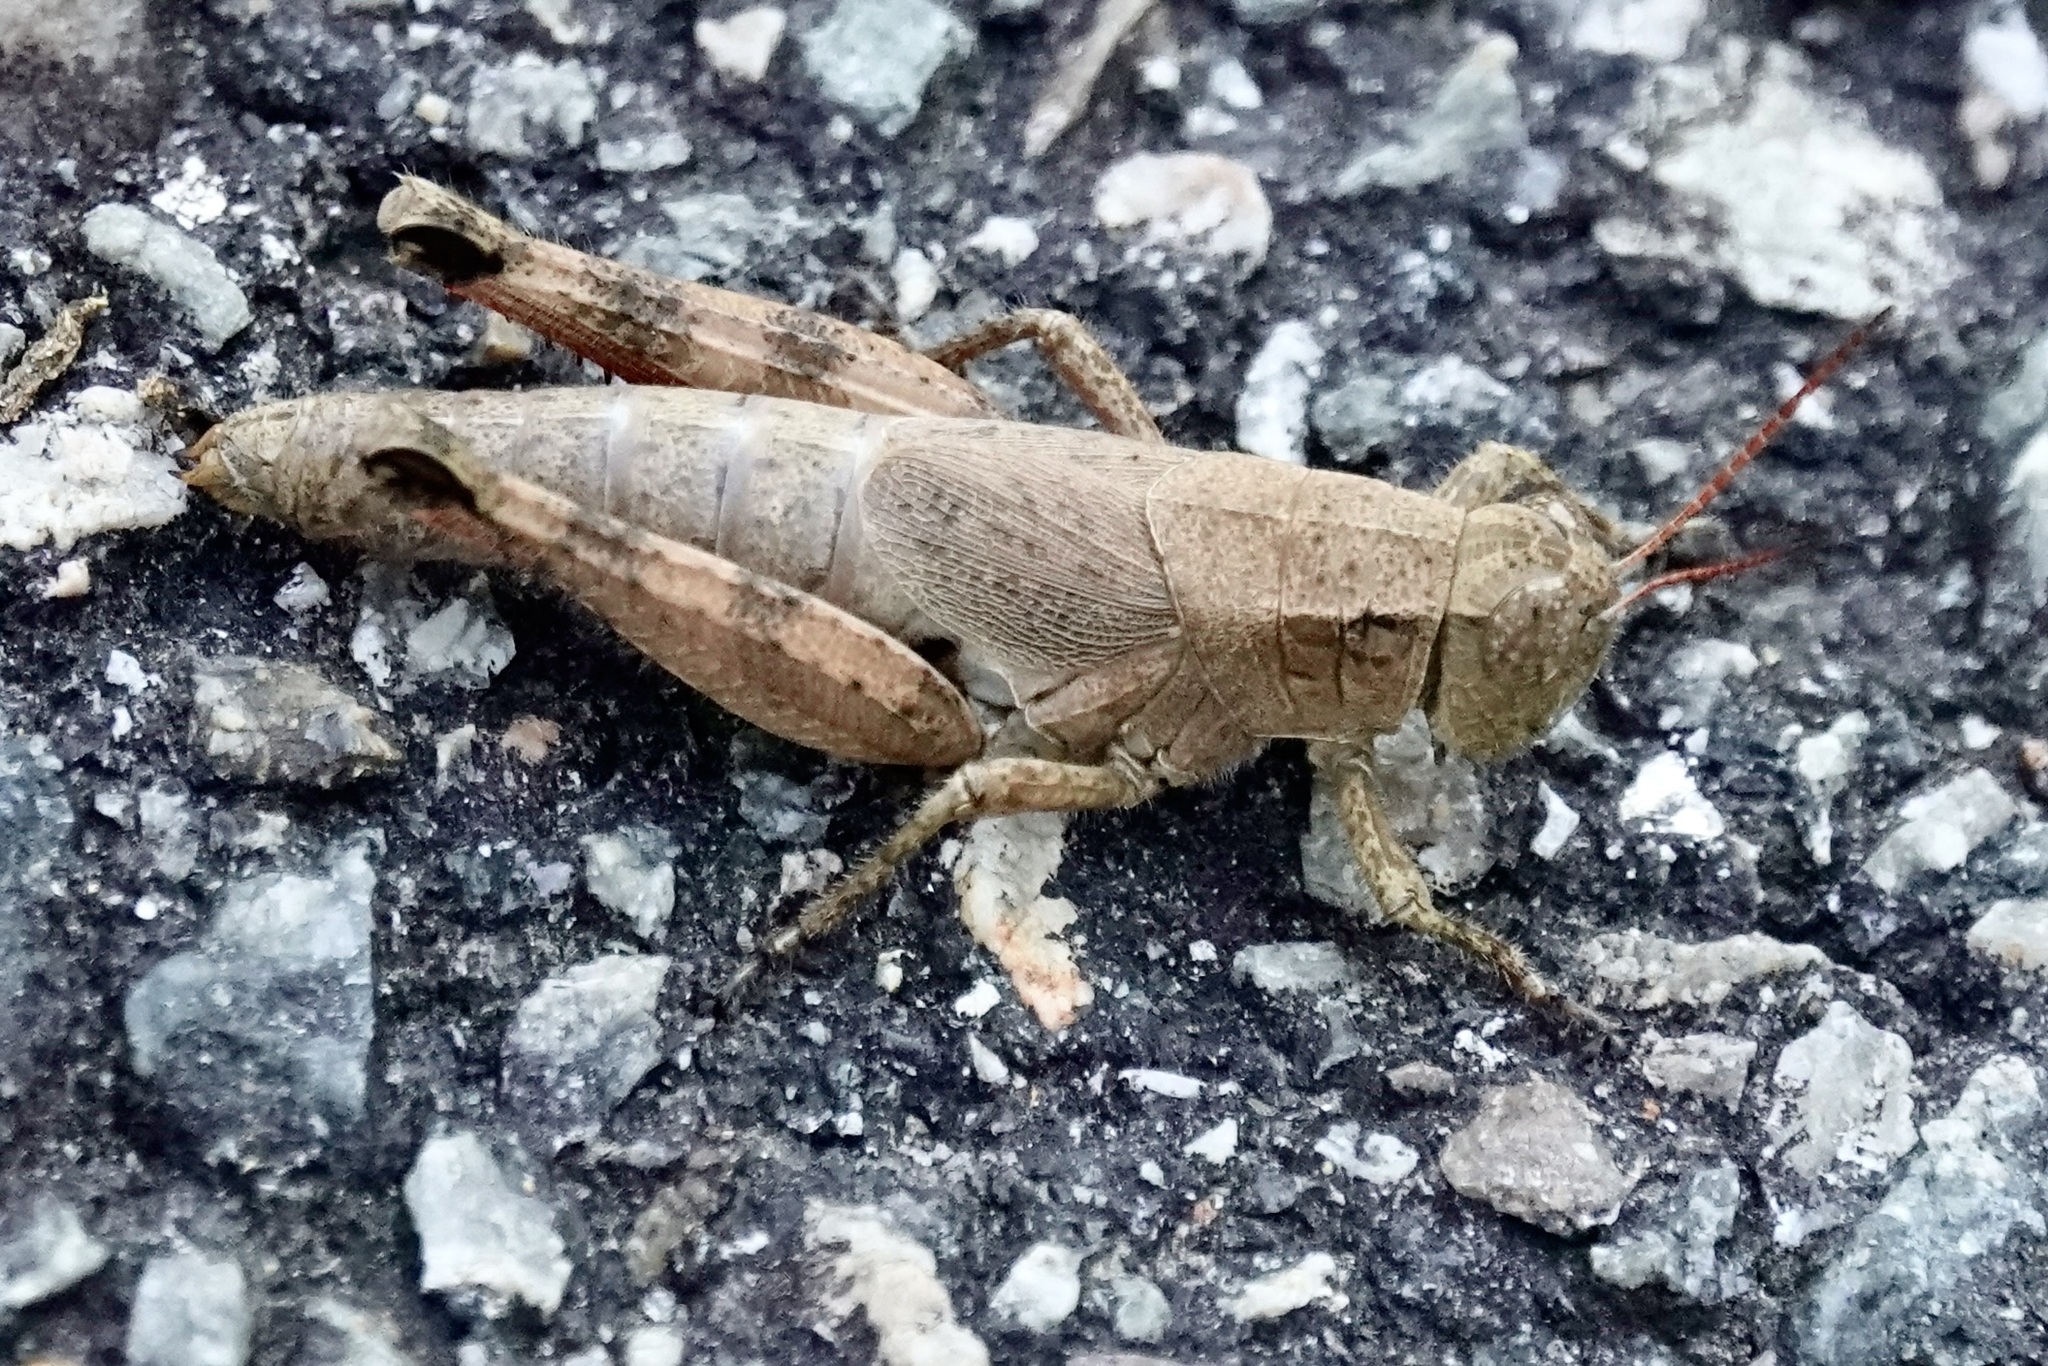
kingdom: Animalia
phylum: Arthropoda
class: Insecta
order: Orthoptera
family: Acrididae
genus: Melanoplus
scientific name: Melanoplus scudderi
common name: Scudder's short-winged locust
